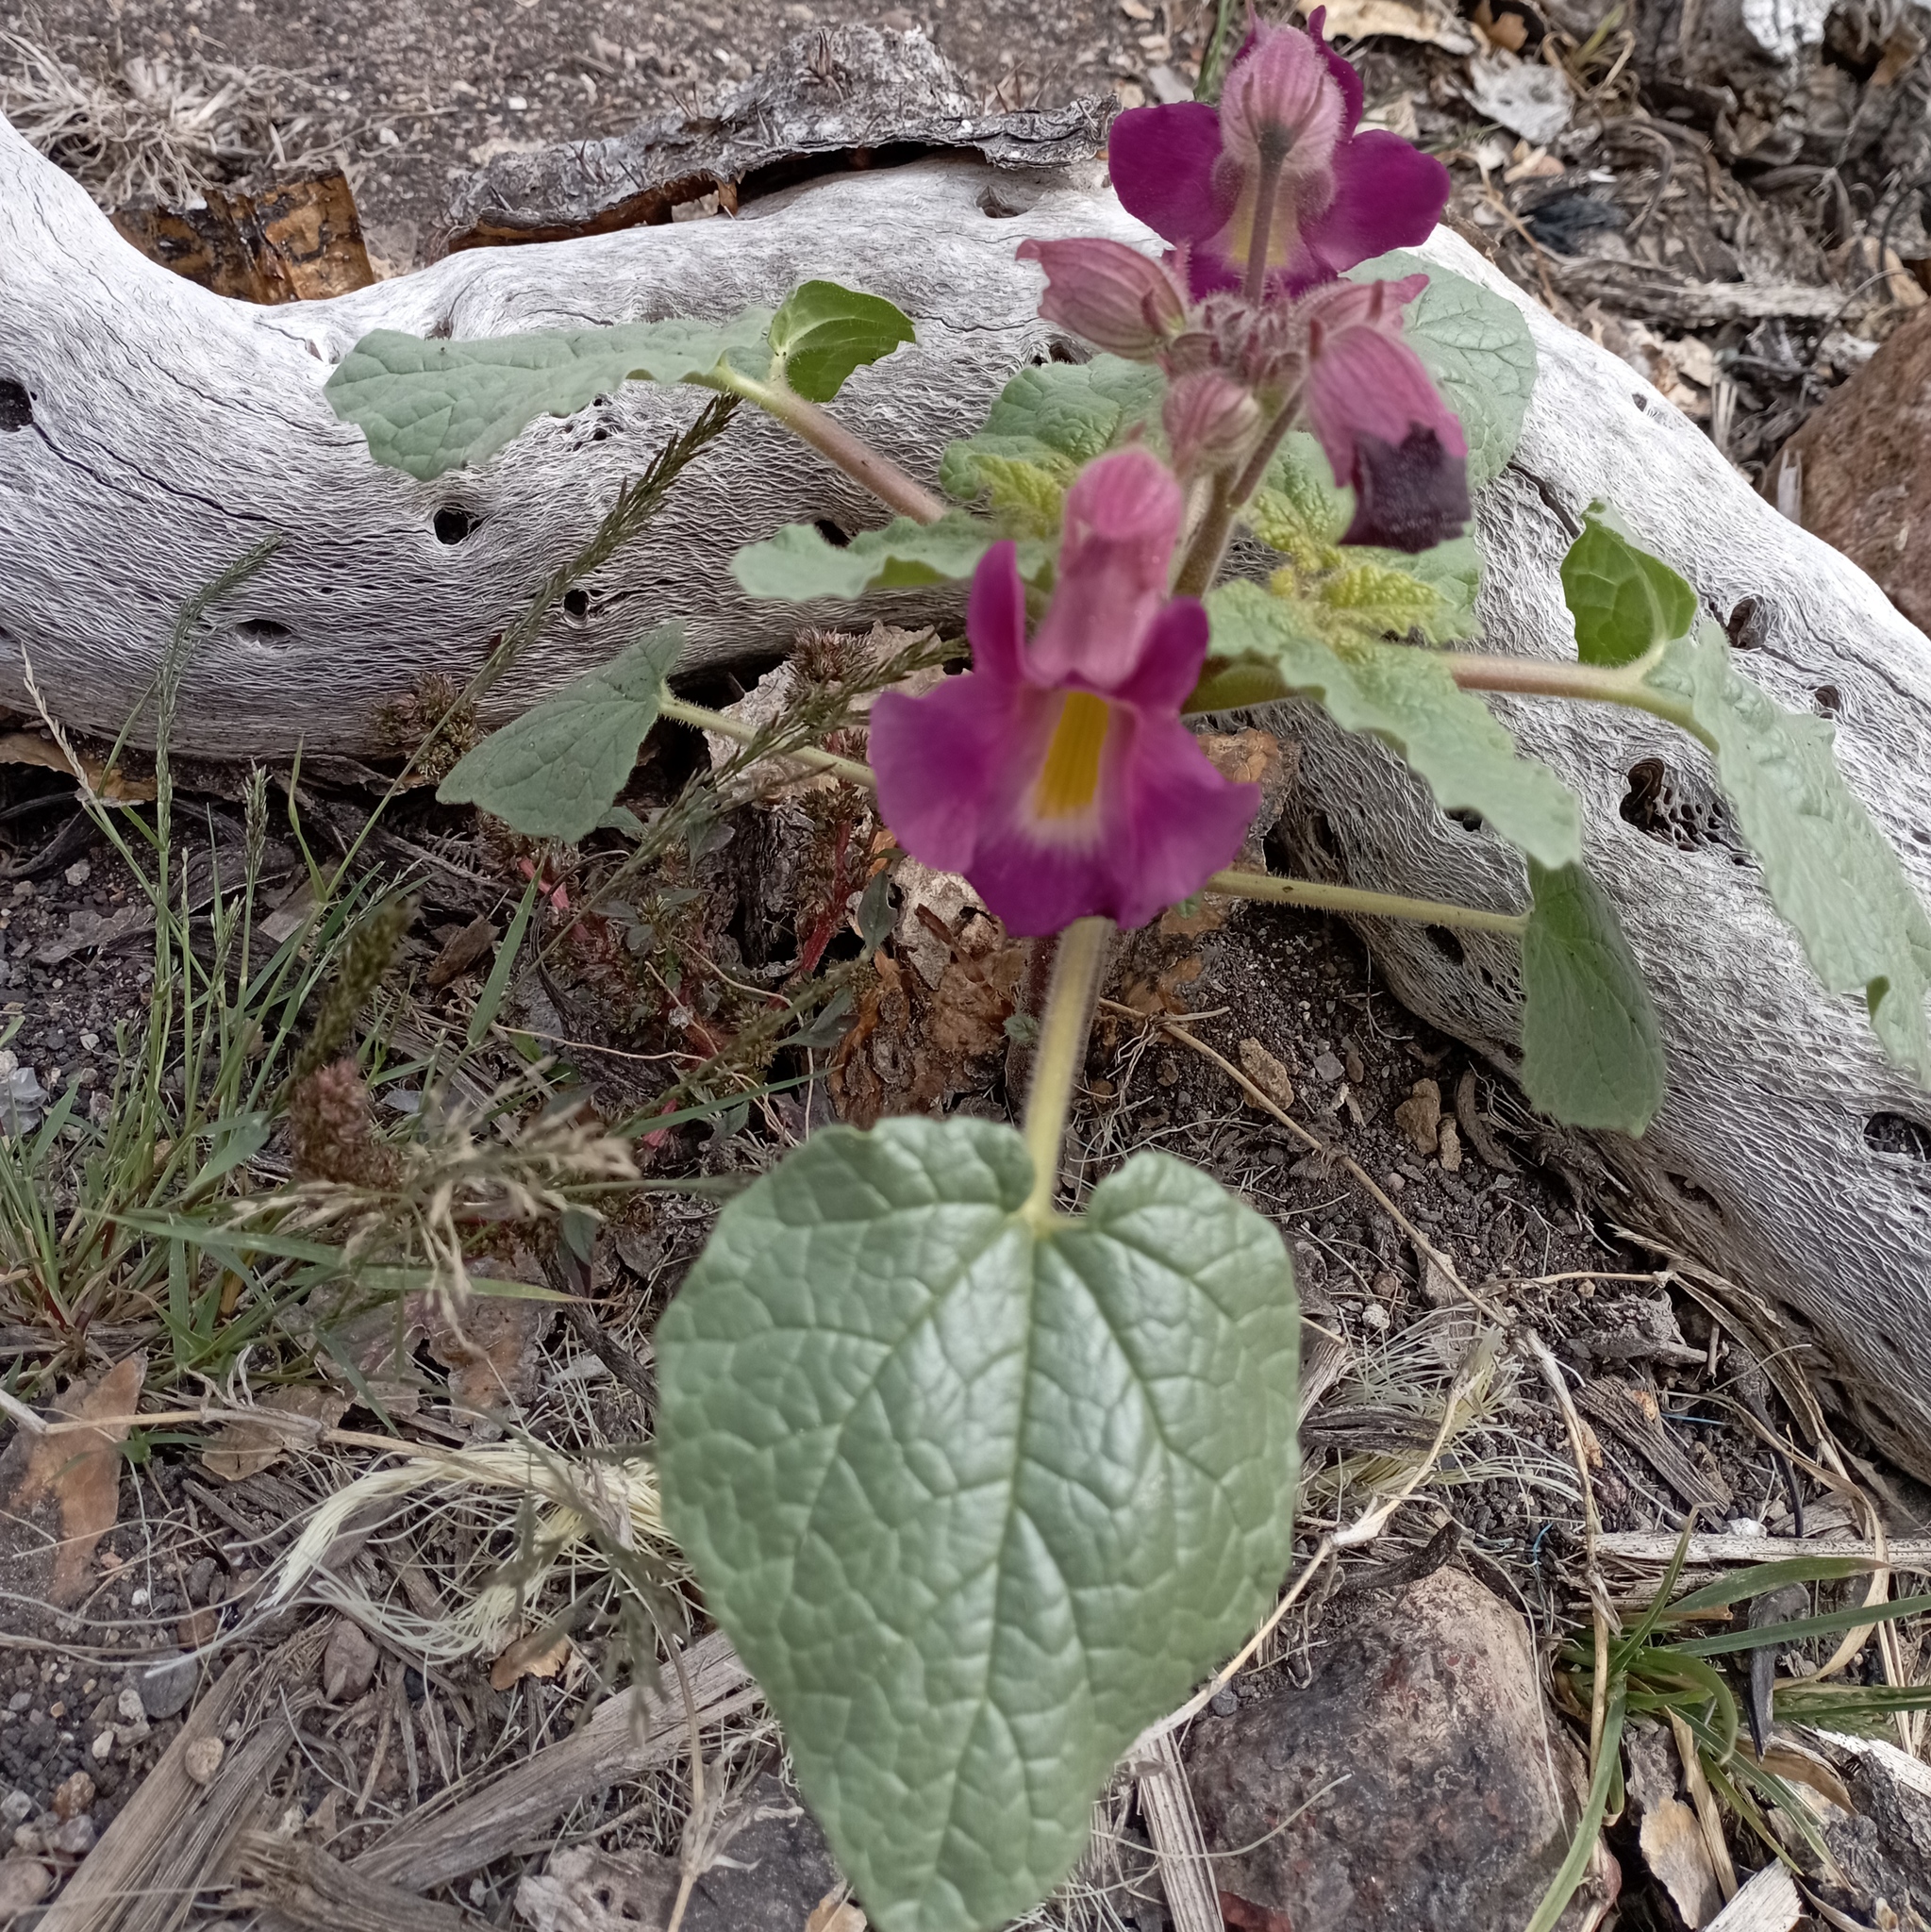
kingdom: Plantae
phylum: Tracheophyta
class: Magnoliopsida
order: Lamiales
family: Martyniaceae
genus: Proboscidea
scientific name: Proboscidea louisianica
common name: Elephant tusks
